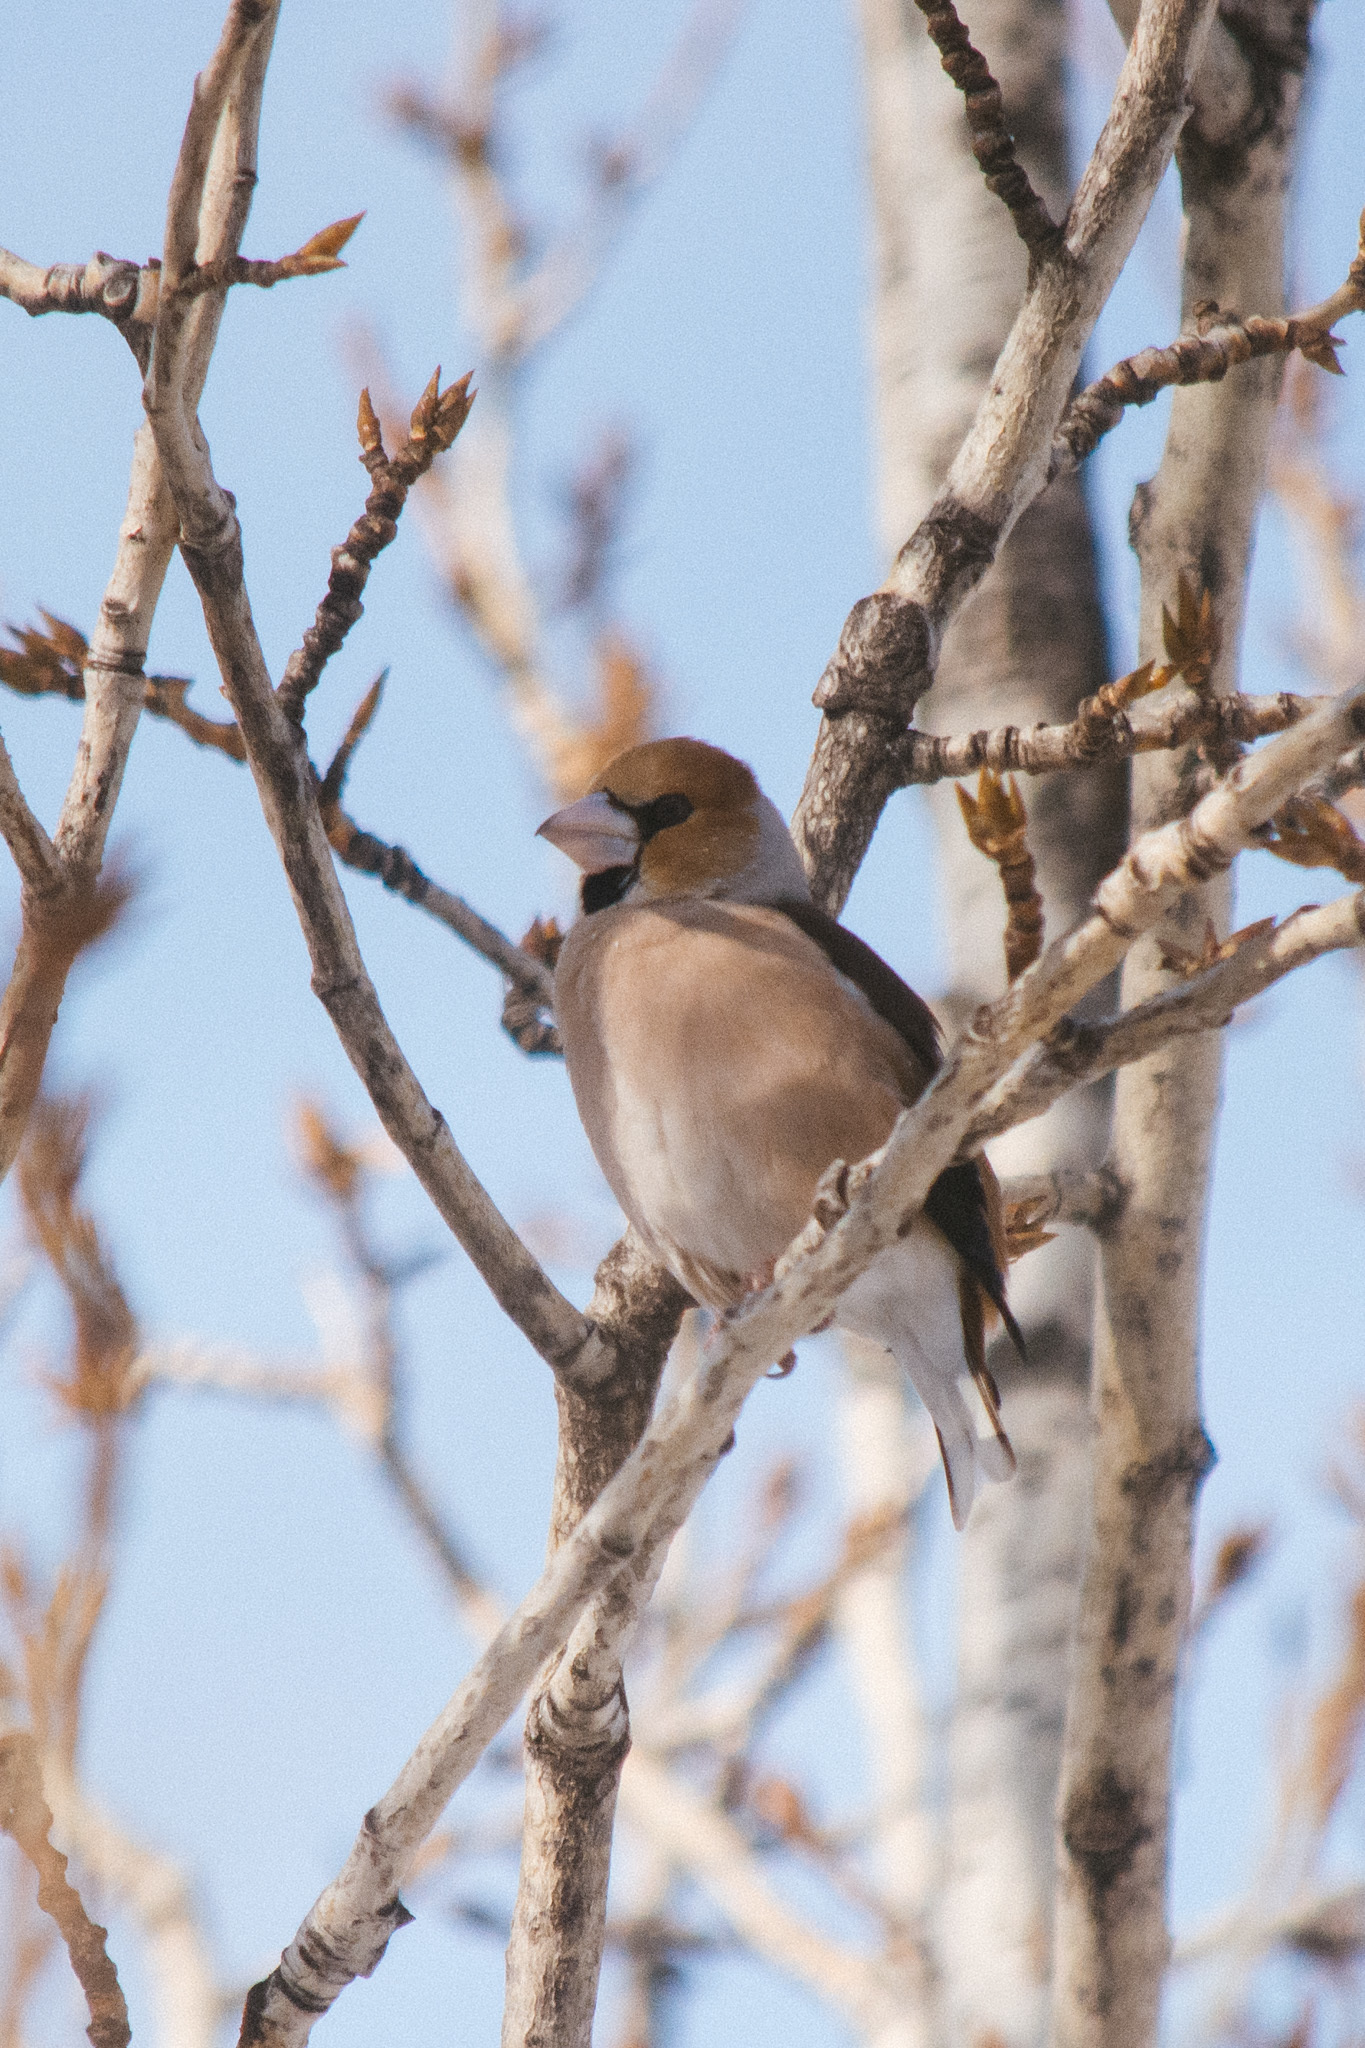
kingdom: Animalia
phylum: Chordata
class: Aves
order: Passeriformes
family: Fringillidae
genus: Coccothraustes
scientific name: Coccothraustes coccothraustes
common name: Hawfinch
